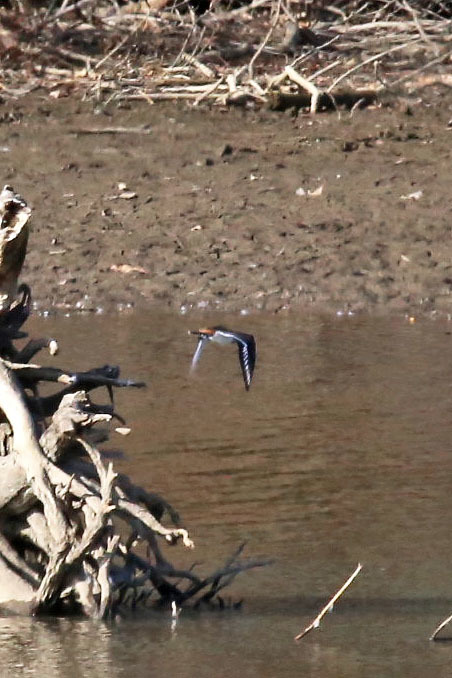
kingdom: Animalia
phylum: Chordata
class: Aves
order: Charadriiformes
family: Charadriidae
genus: Charadrius
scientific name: Charadrius vociferus
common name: Killdeer
